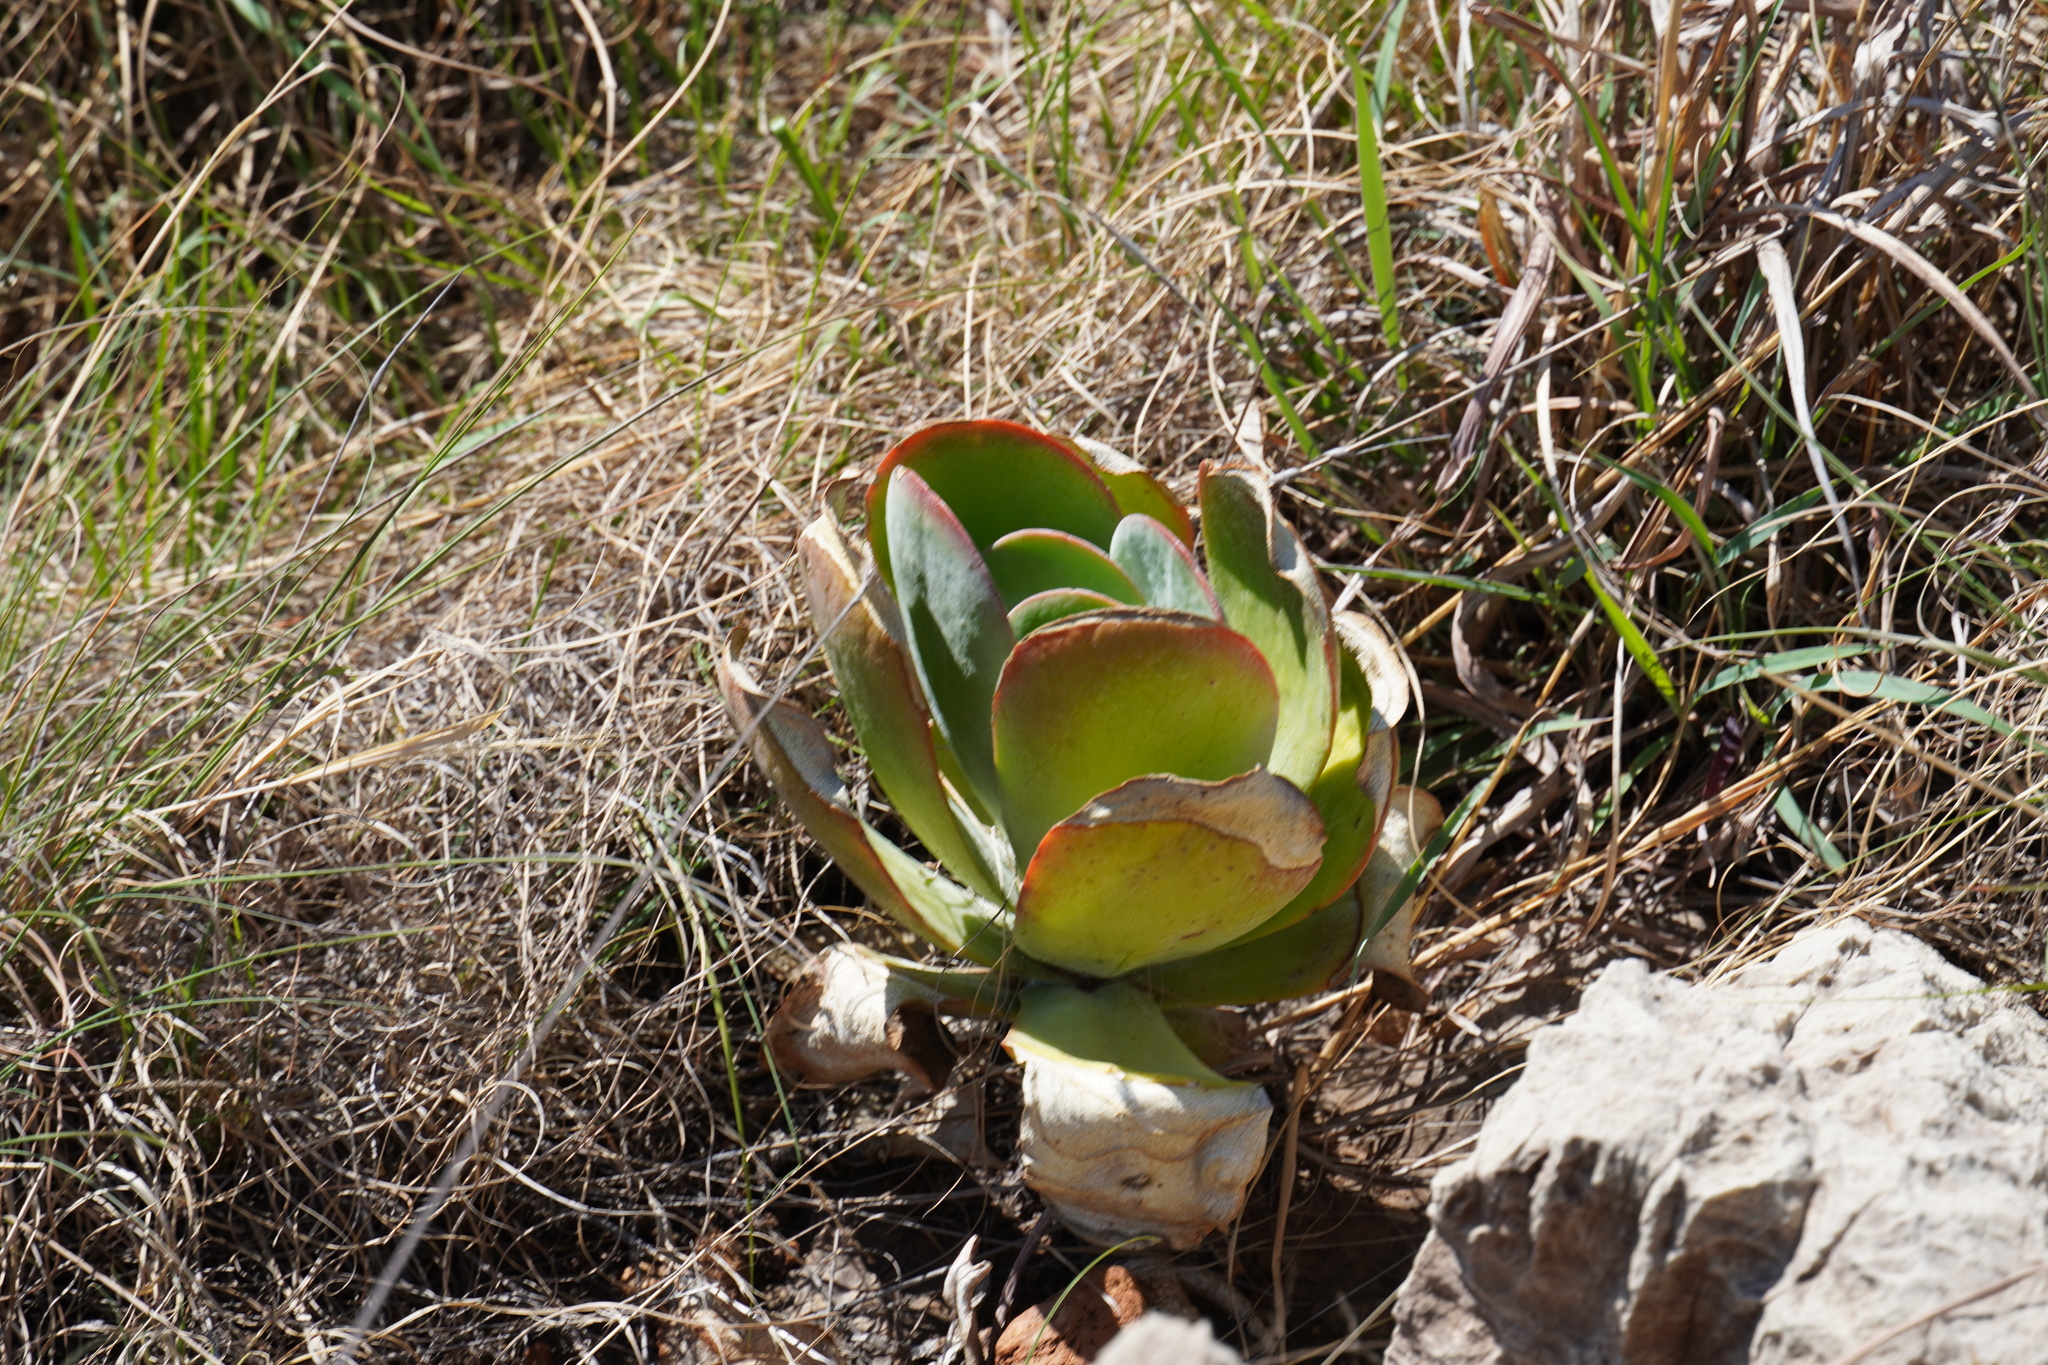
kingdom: Plantae
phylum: Tracheophyta
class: Magnoliopsida
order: Saxifragales
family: Crassulaceae
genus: Kalanchoe
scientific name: Kalanchoe thyrsiflora
